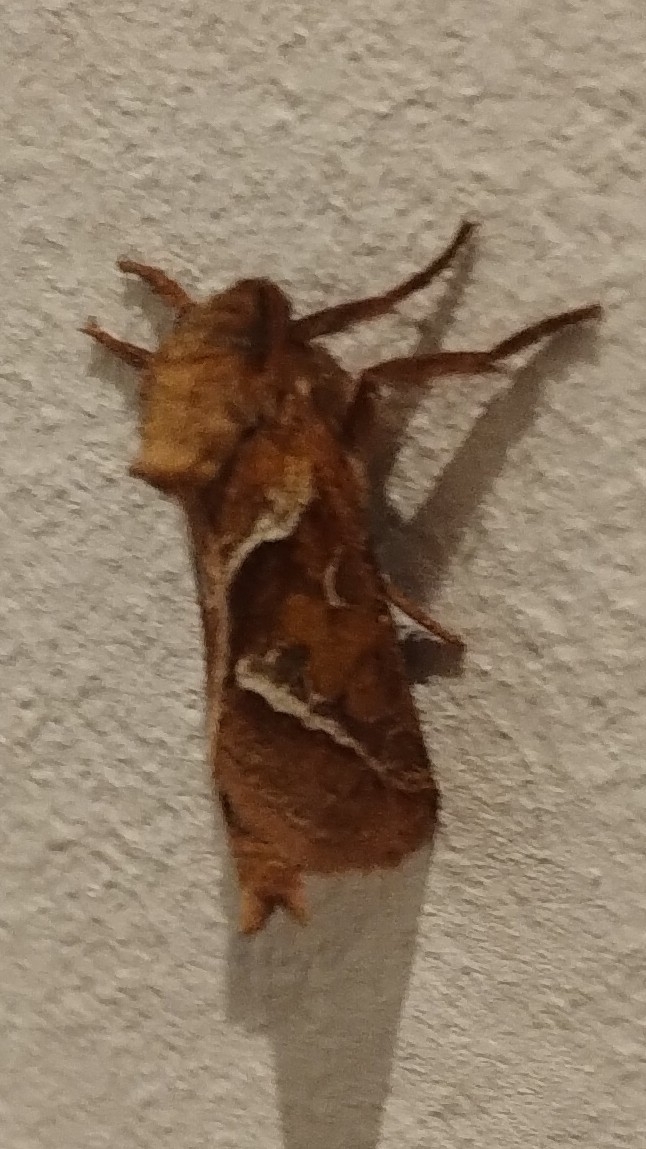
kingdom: Animalia
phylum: Arthropoda
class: Insecta
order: Lepidoptera
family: Hepialidae
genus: Triodia
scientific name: Triodia sylvina
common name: Orange swift
